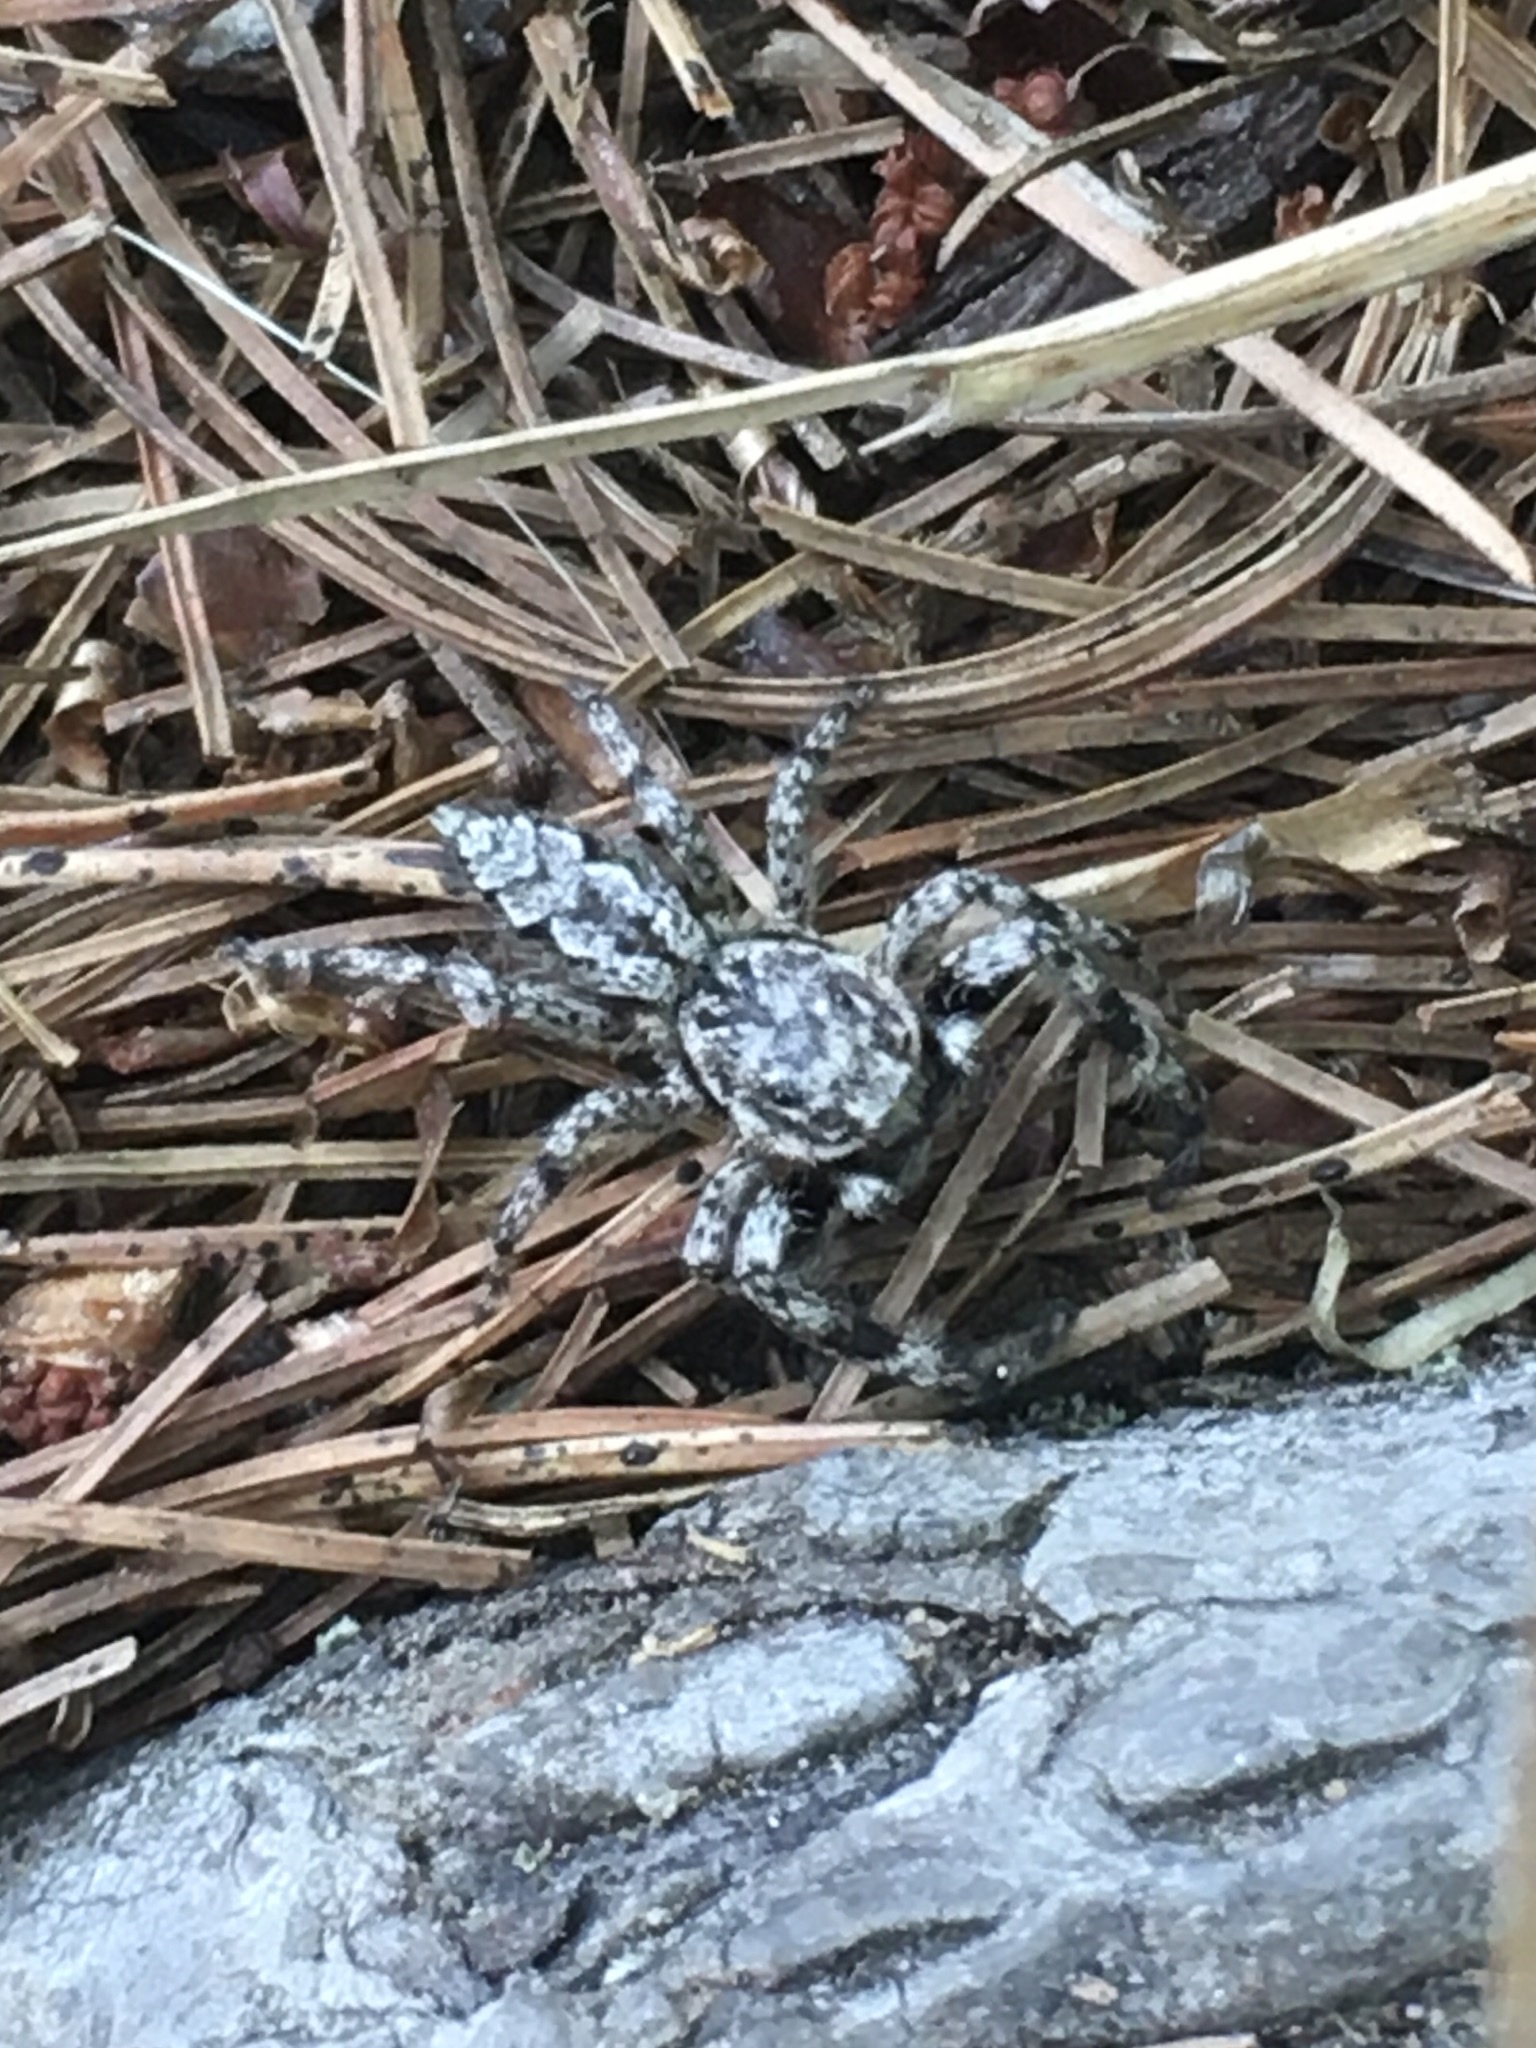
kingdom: Animalia
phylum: Arthropoda
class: Arachnida
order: Araneae
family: Salticidae
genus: Platycryptus
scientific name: Platycryptus undatus
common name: Tan jumping spider
